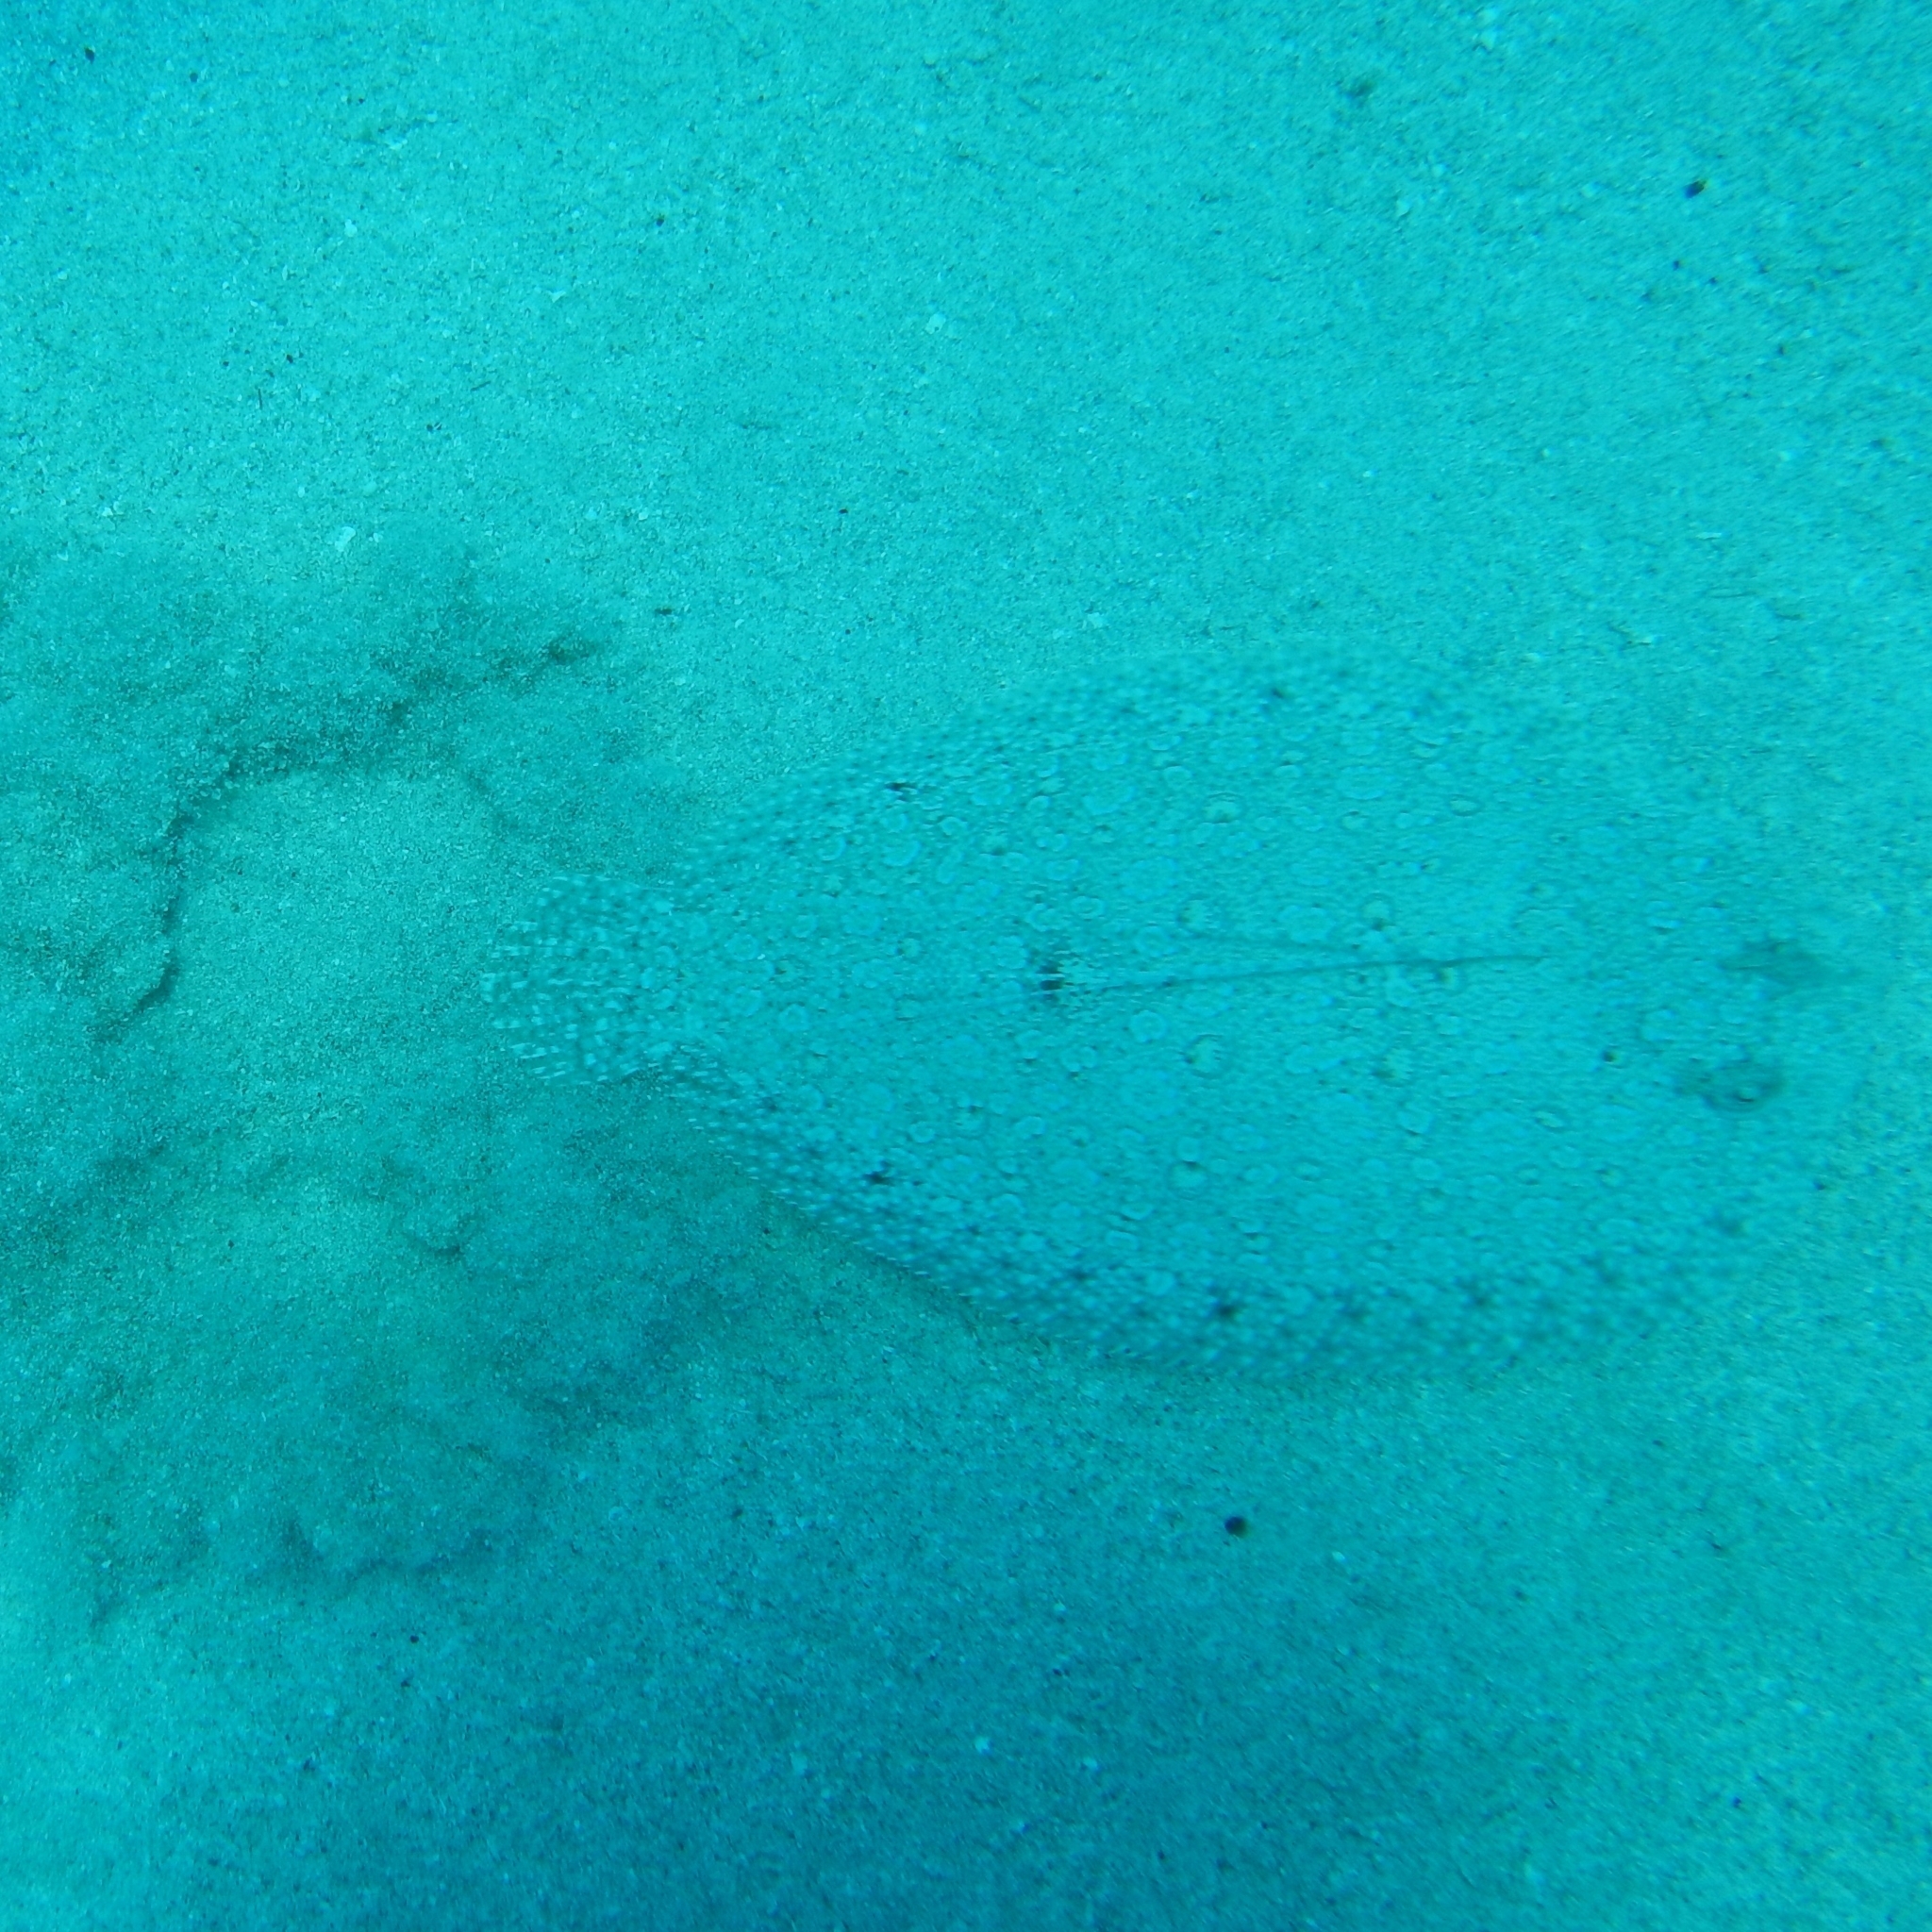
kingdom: Animalia
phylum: Chordata
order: Pleuronectiformes
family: Bothidae
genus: Bothus
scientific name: Bothus maculiferus
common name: Mottled flounder
